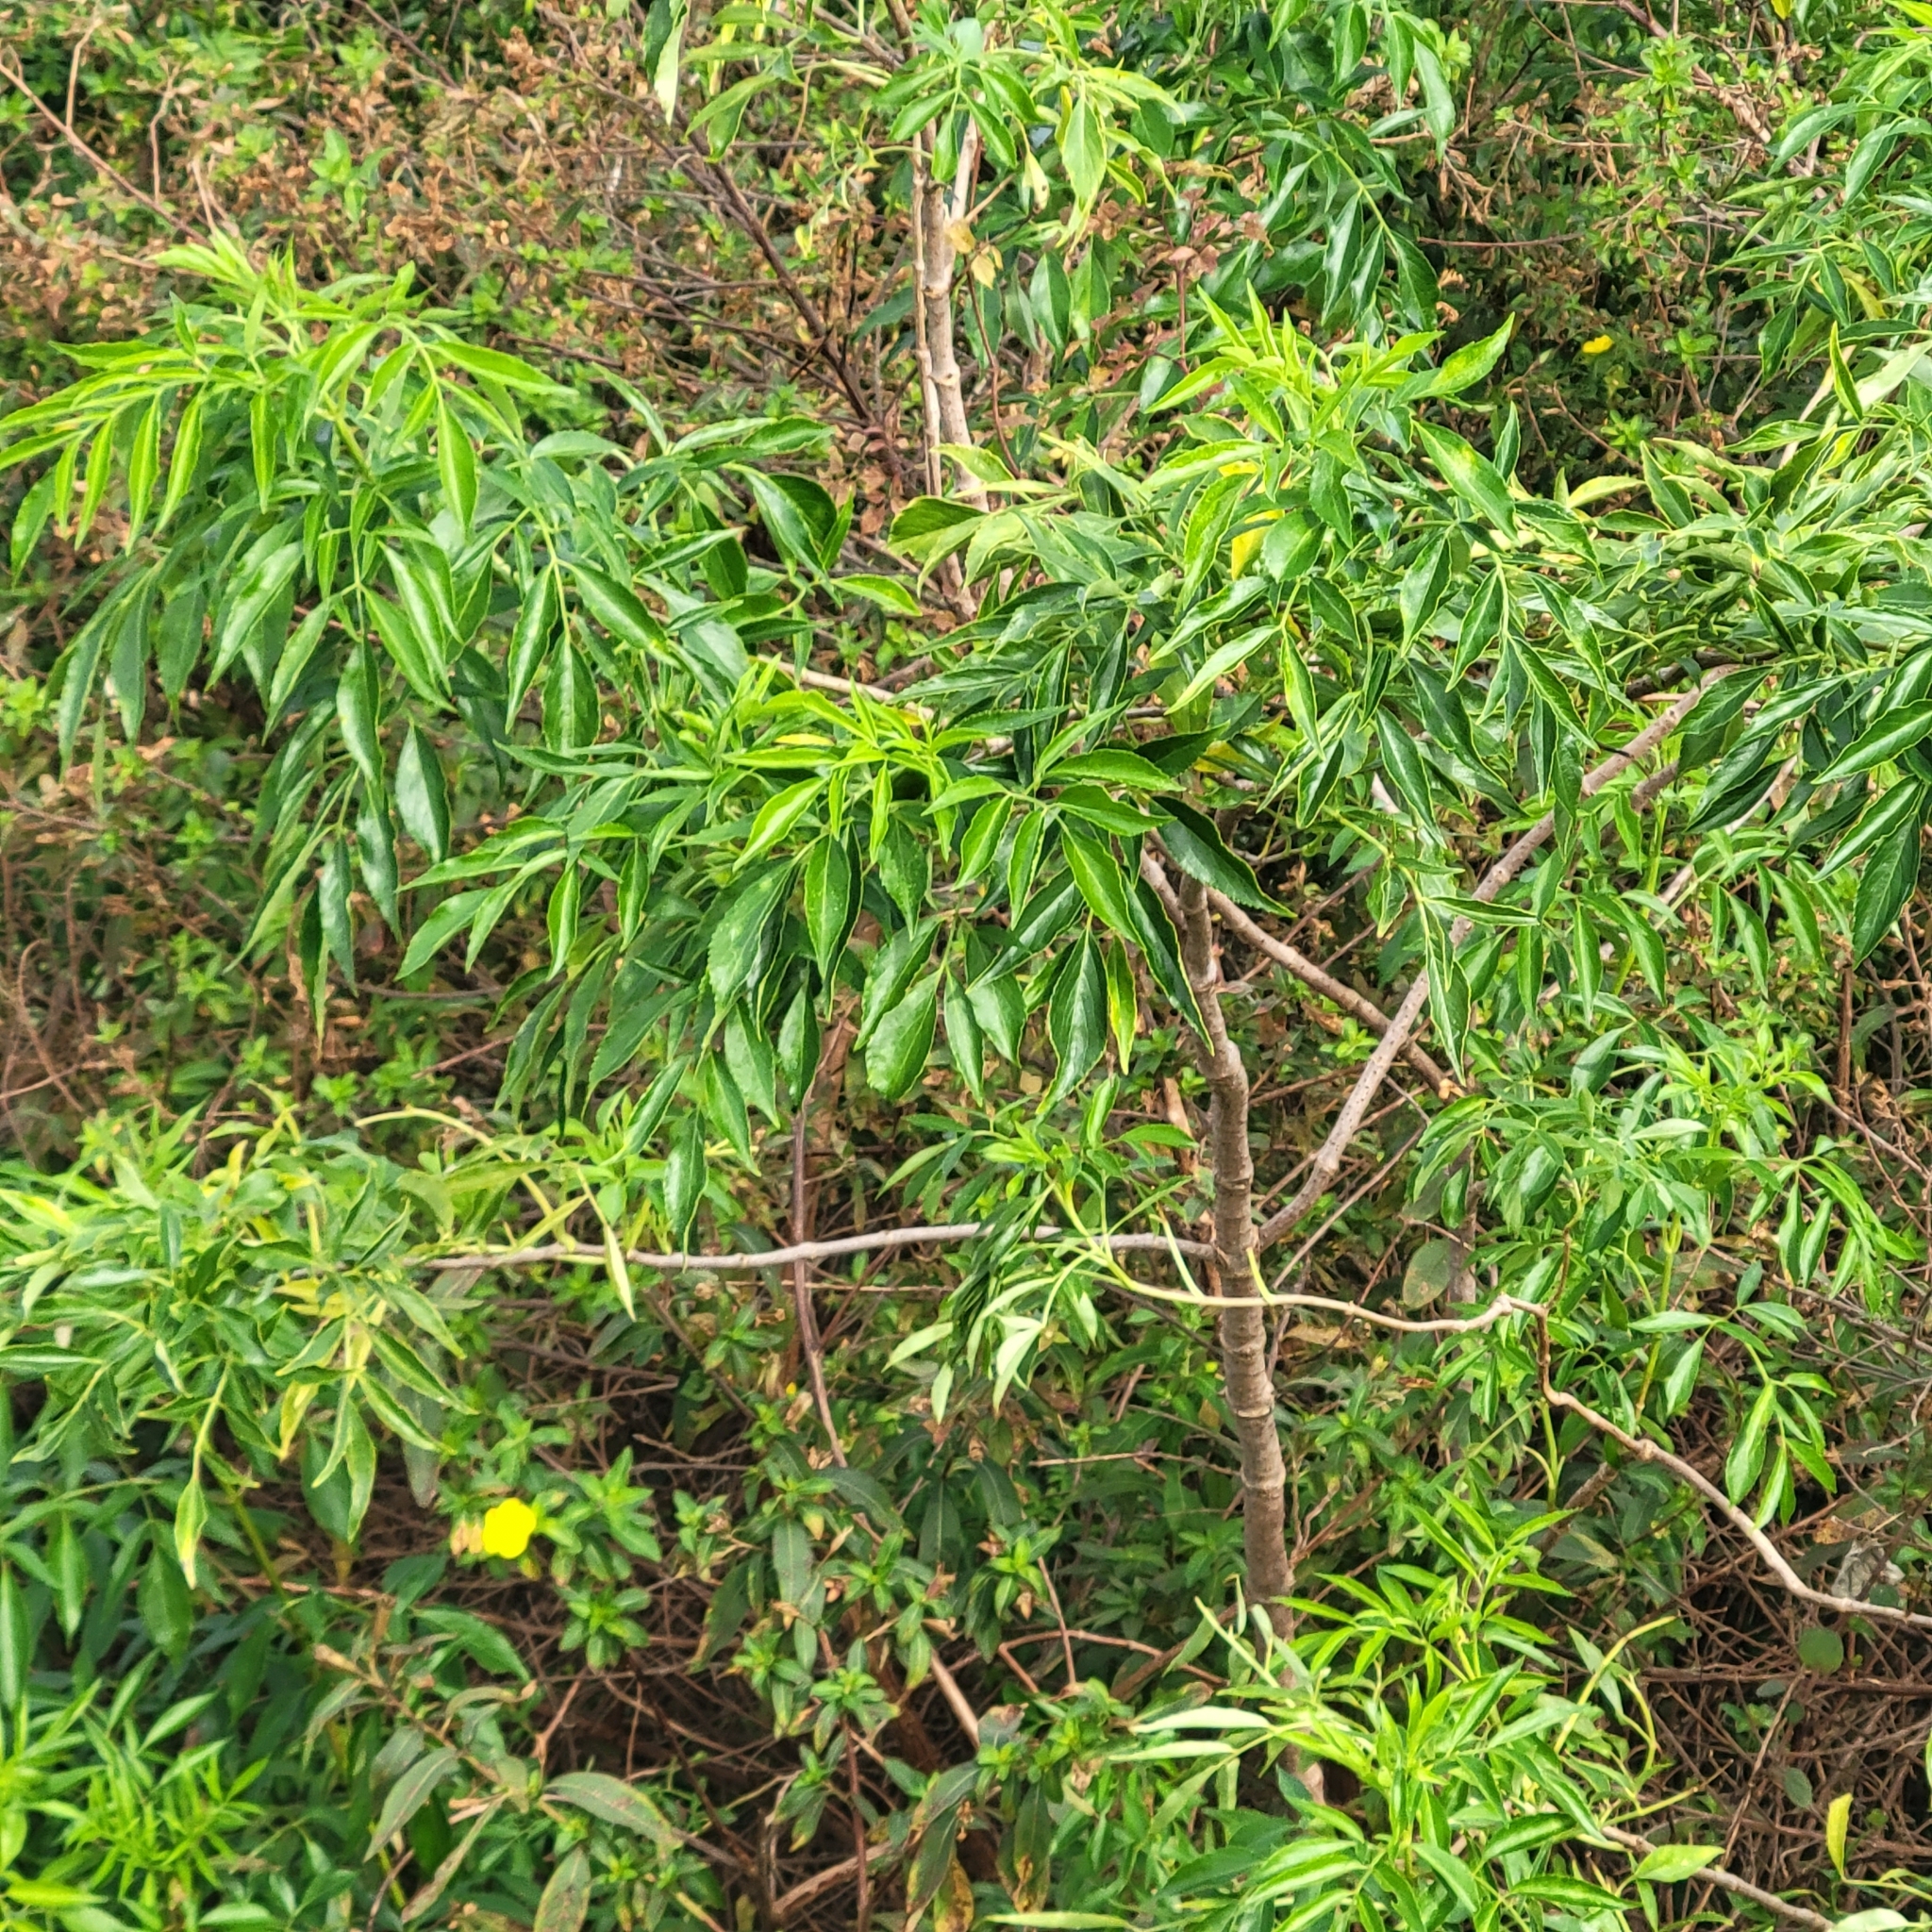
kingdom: Plantae
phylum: Tracheophyta
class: Magnoliopsida
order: Dipsacales
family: Viburnaceae
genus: Sambucus
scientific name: Sambucus canadensis
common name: American elder
